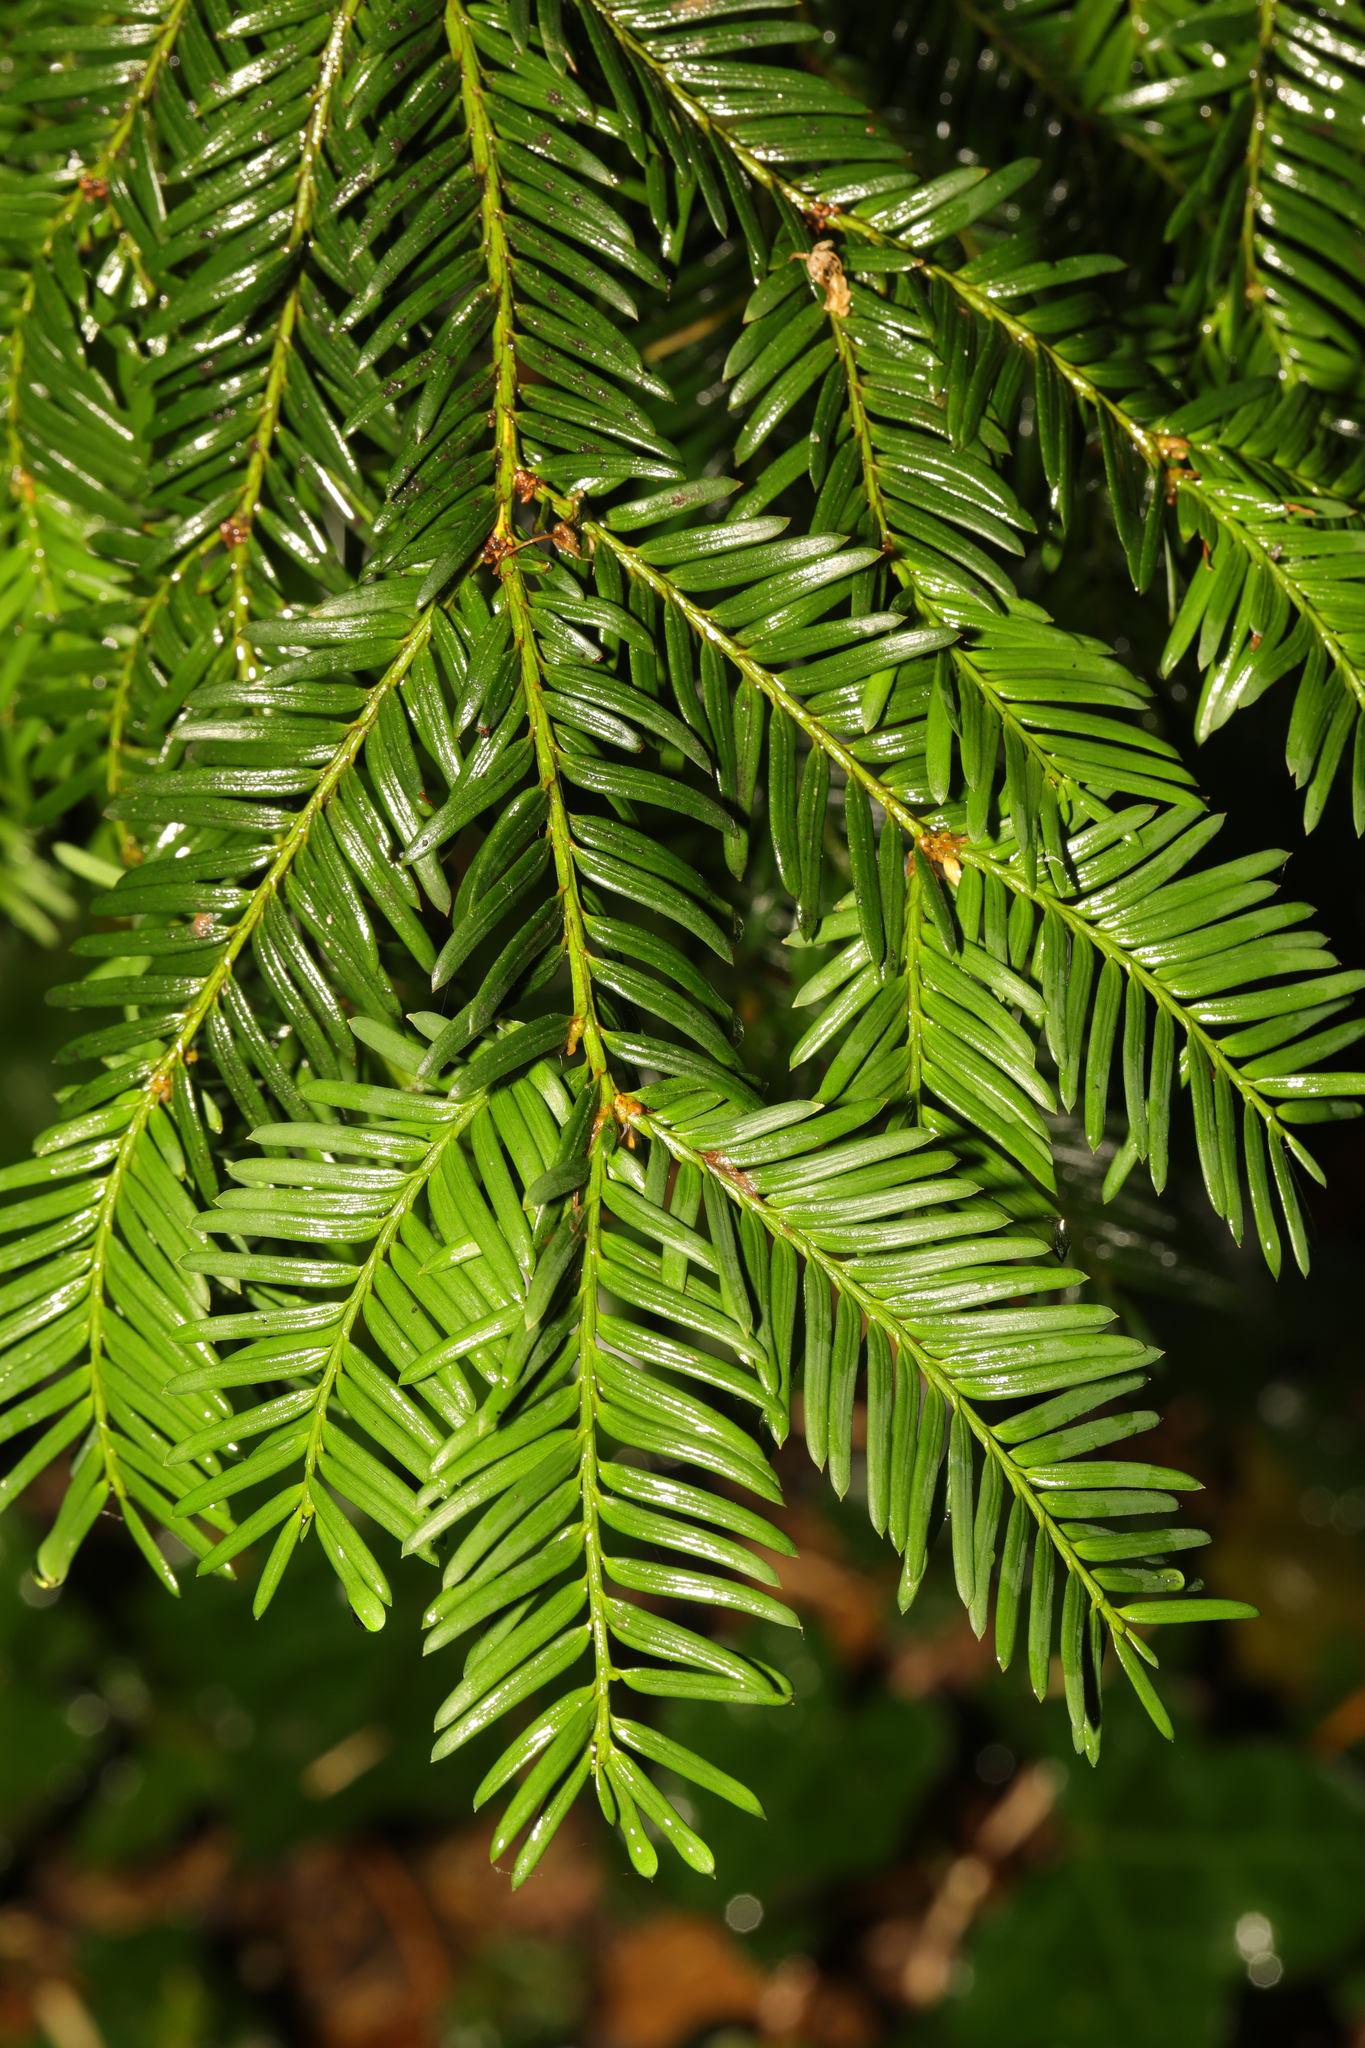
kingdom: Plantae
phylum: Tracheophyta
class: Pinopsida
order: Pinales
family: Taxaceae
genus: Taxus
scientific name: Taxus baccata
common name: Yew
